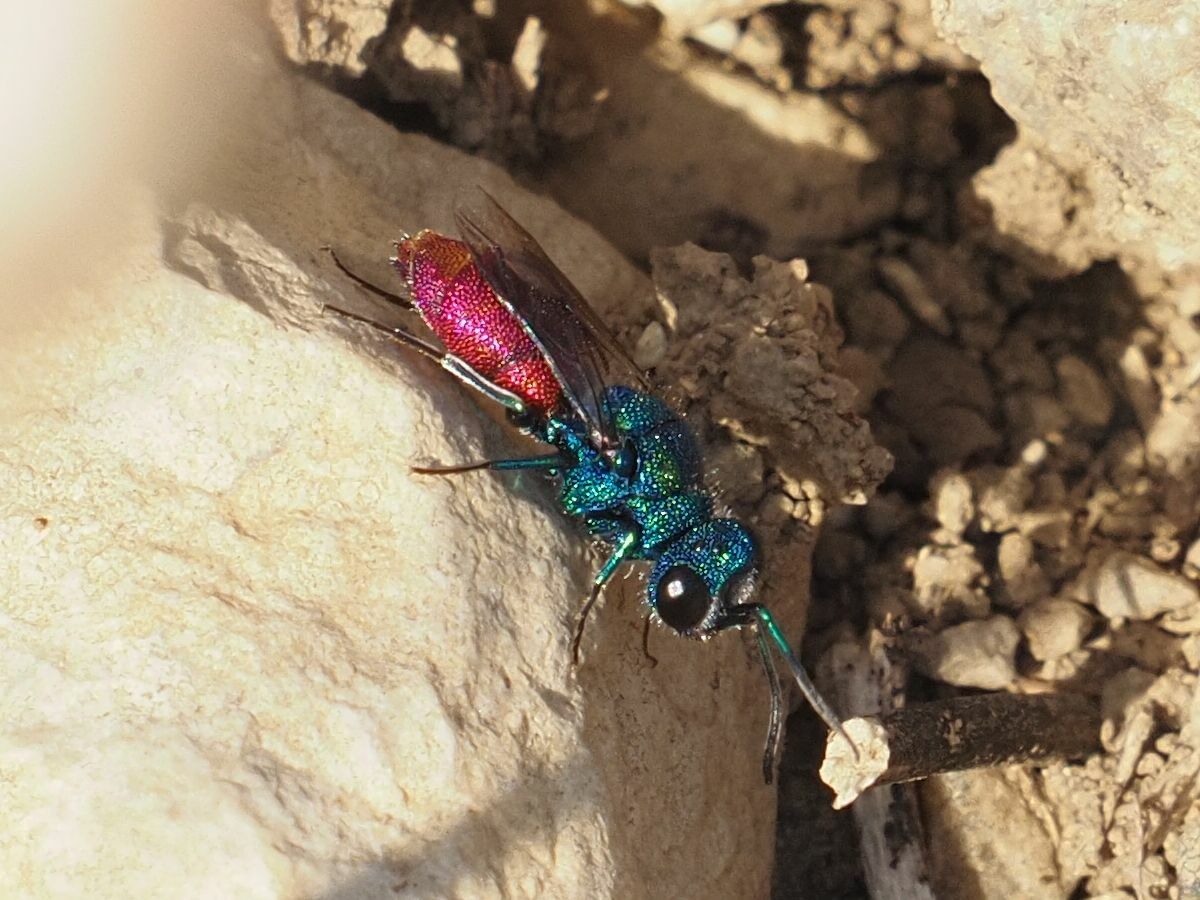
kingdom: Animalia
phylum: Arthropoda
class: Insecta
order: Hymenoptera
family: Chrysididae
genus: Chrysis
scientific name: Chrysis inaequalis
